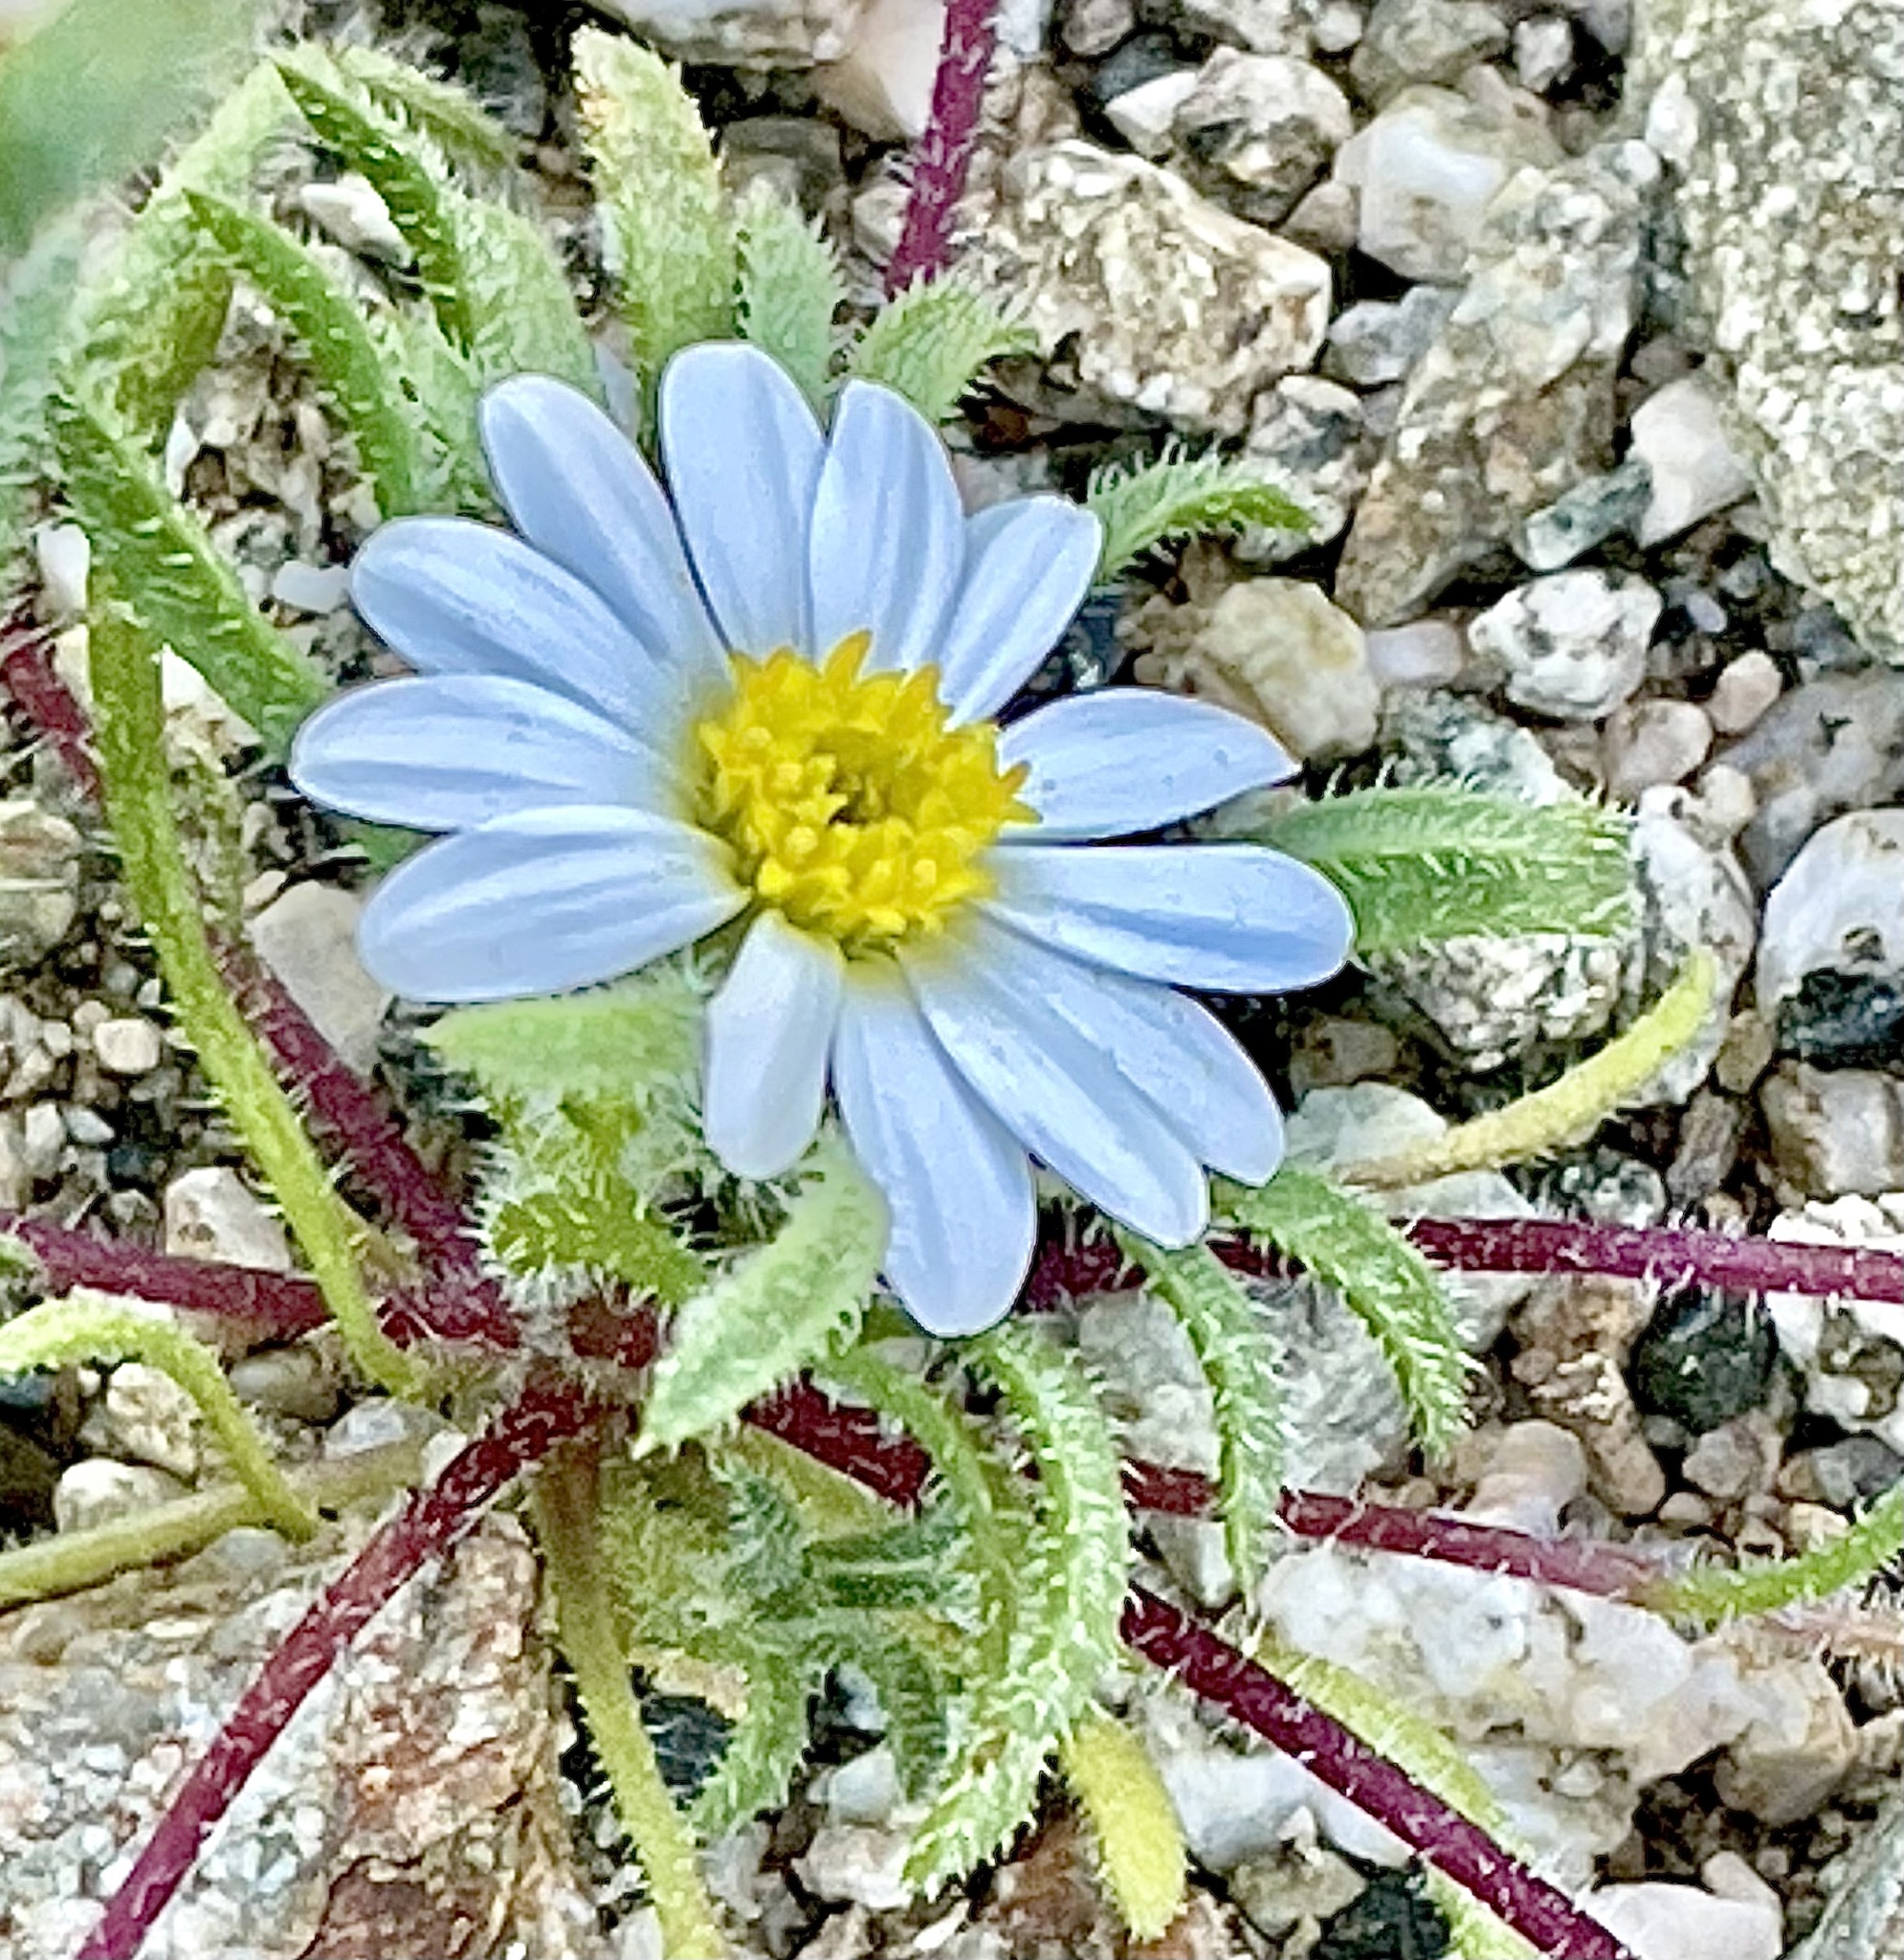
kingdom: Plantae
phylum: Tracheophyta
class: Magnoliopsida
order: Asterales
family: Asteraceae
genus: Monoptilon
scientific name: Monoptilon bellioides
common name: Bristly desertstar
